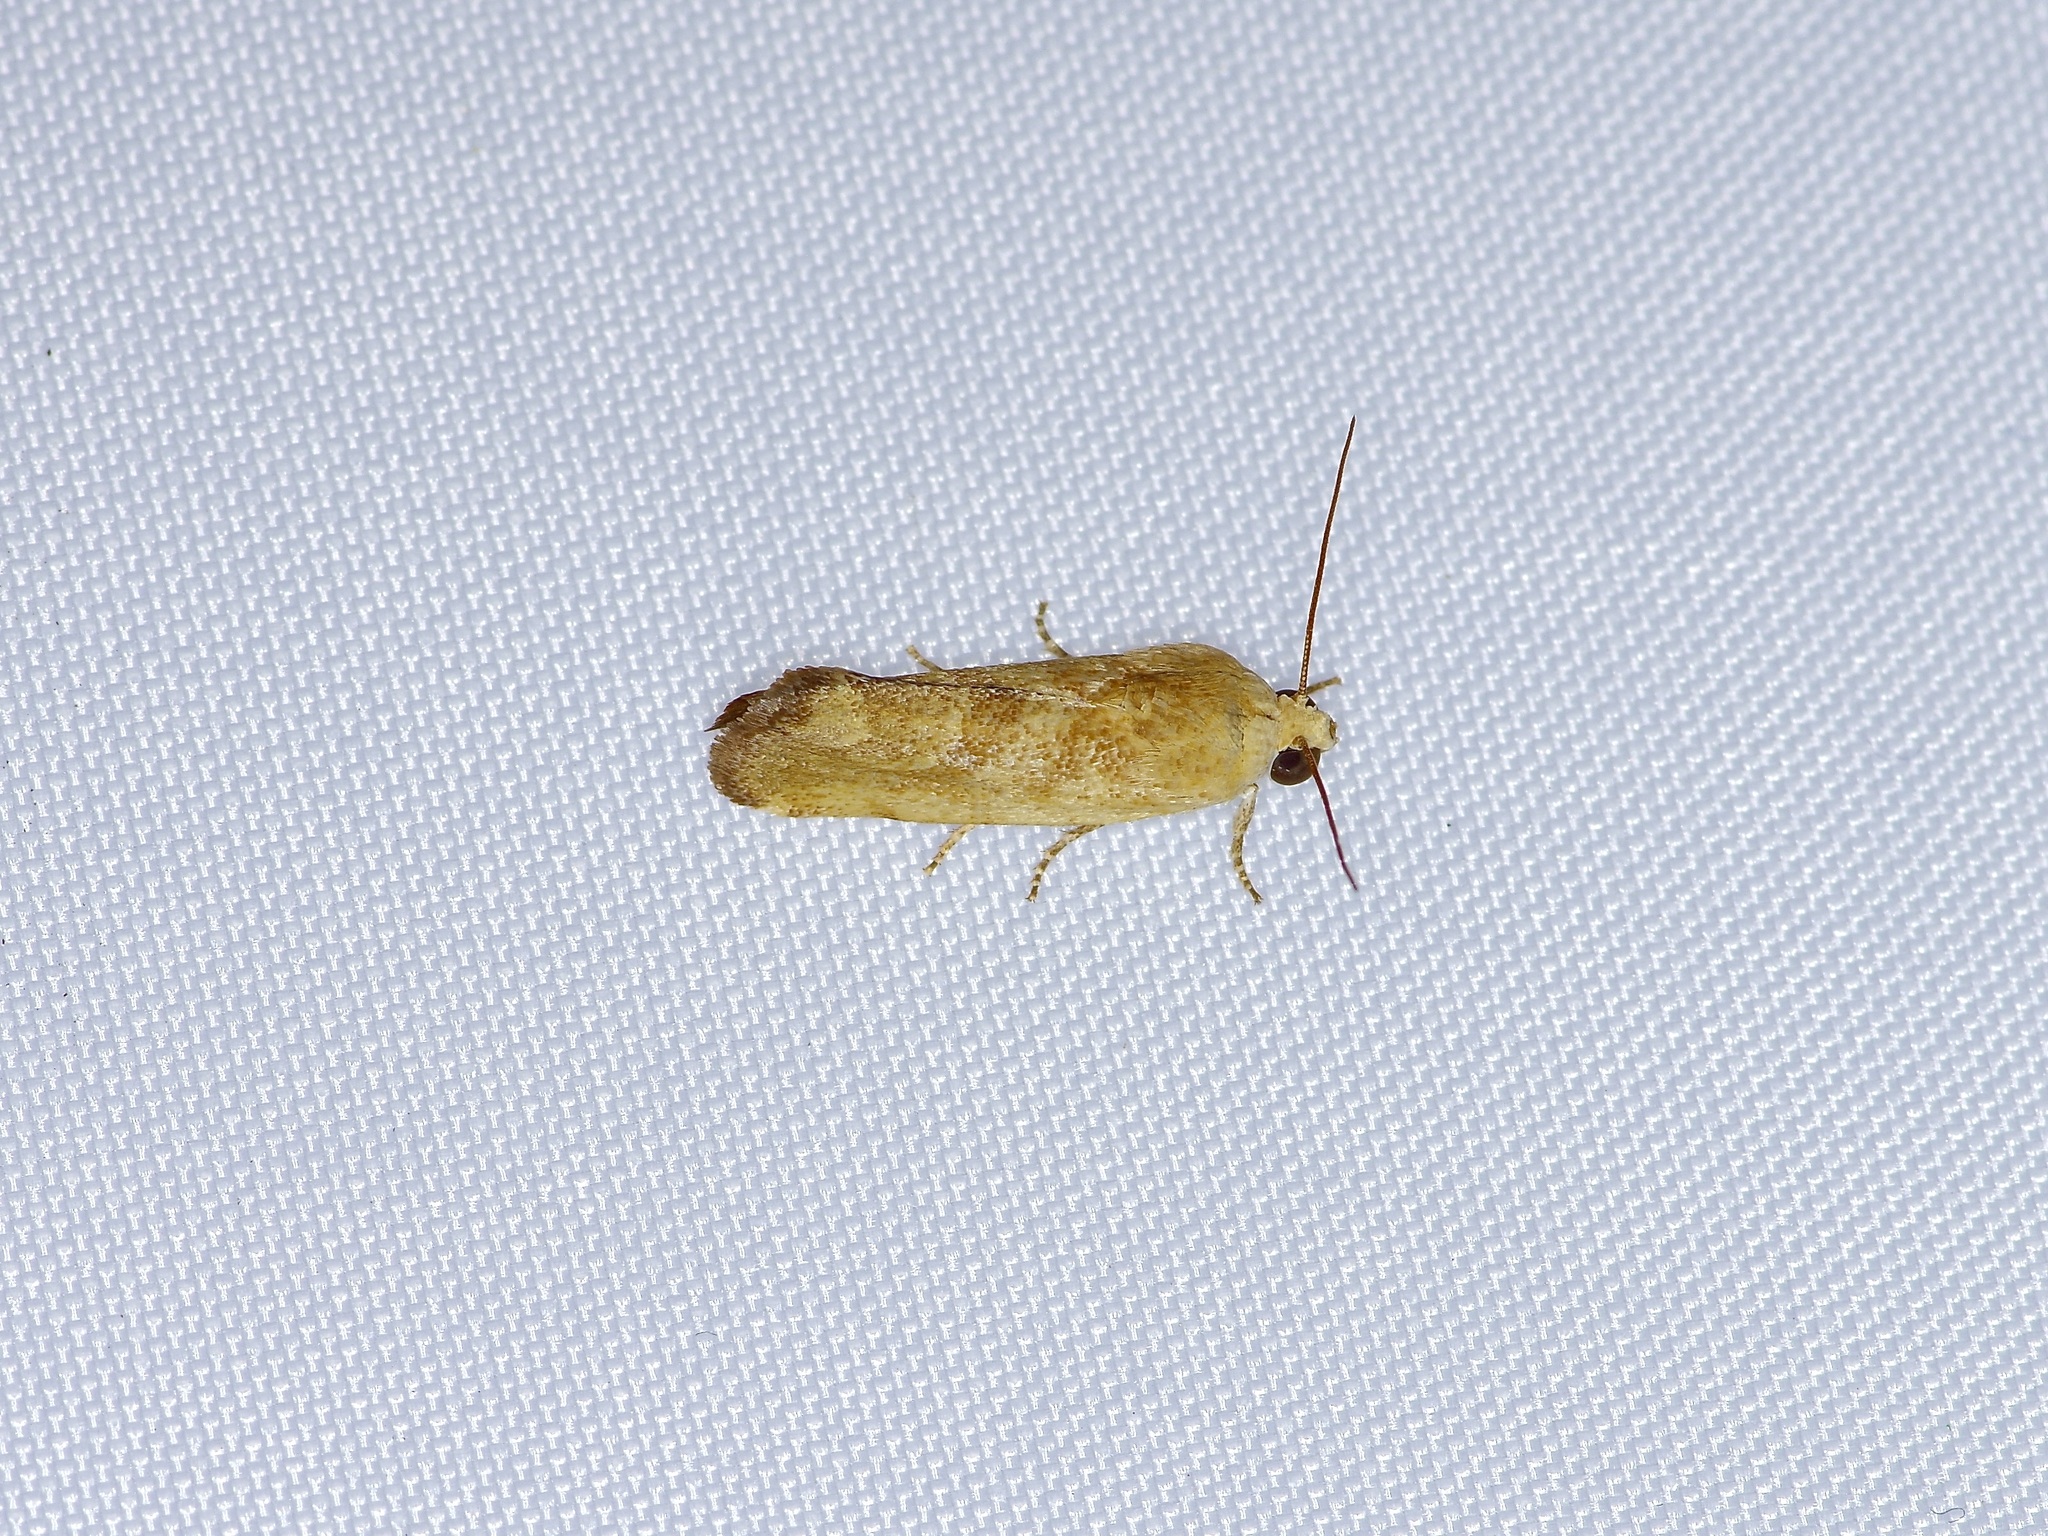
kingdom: Animalia
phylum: Arthropoda
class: Insecta
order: Lepidoptera
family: Noctuidae
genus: Acontia
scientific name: Acontia fasciatella
